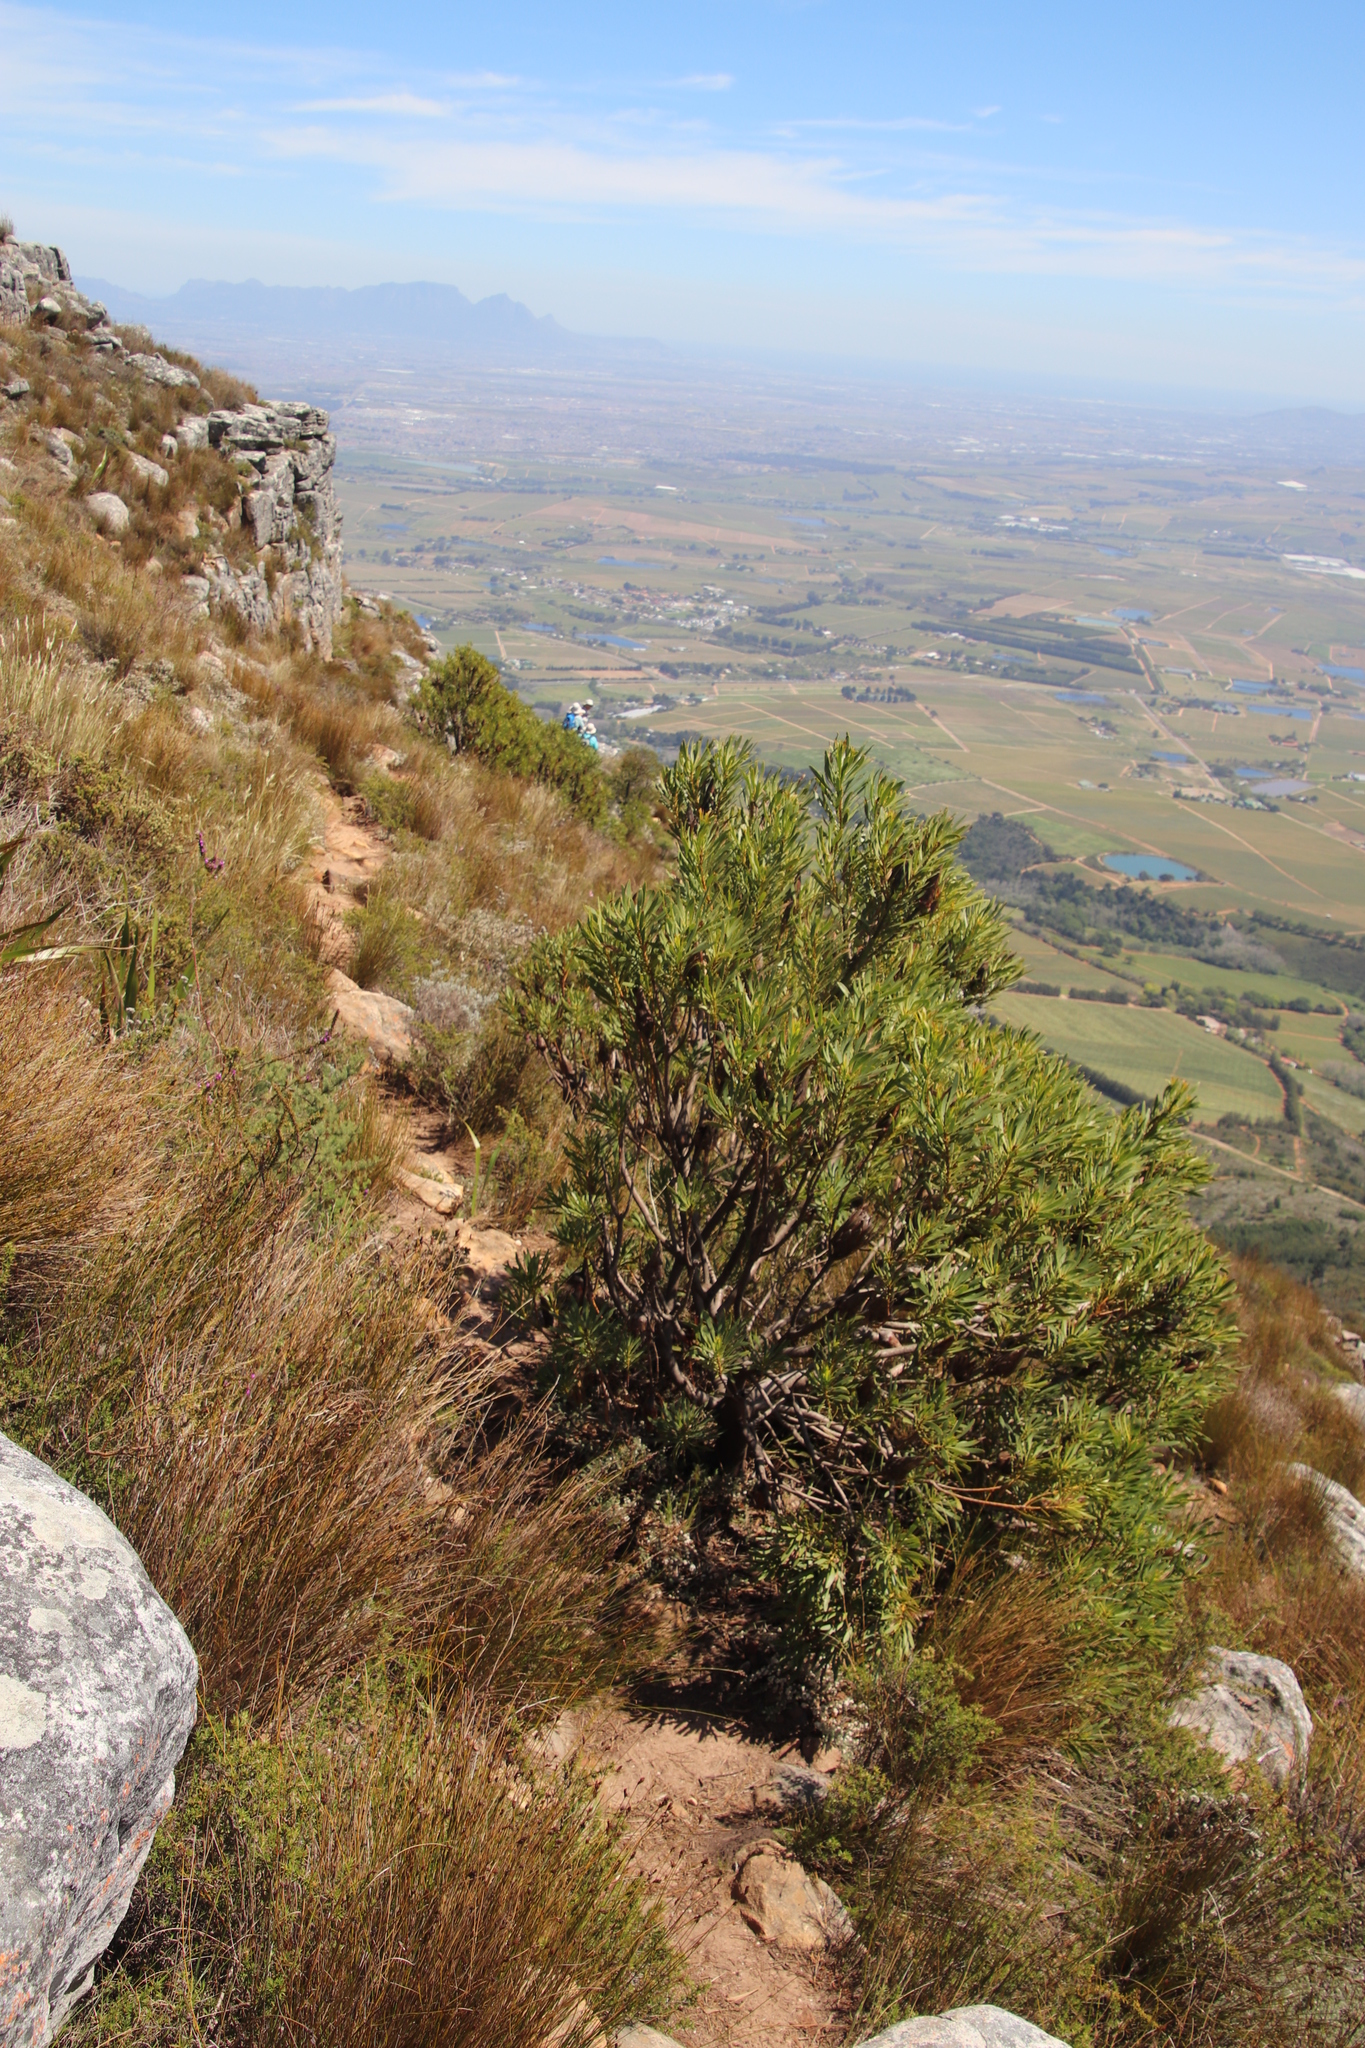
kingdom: Plantae
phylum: Tracheophyta
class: Magnoliopsida
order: Proteales
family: Proteaceae
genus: Protea
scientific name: Protea repens
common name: Sugarbush
